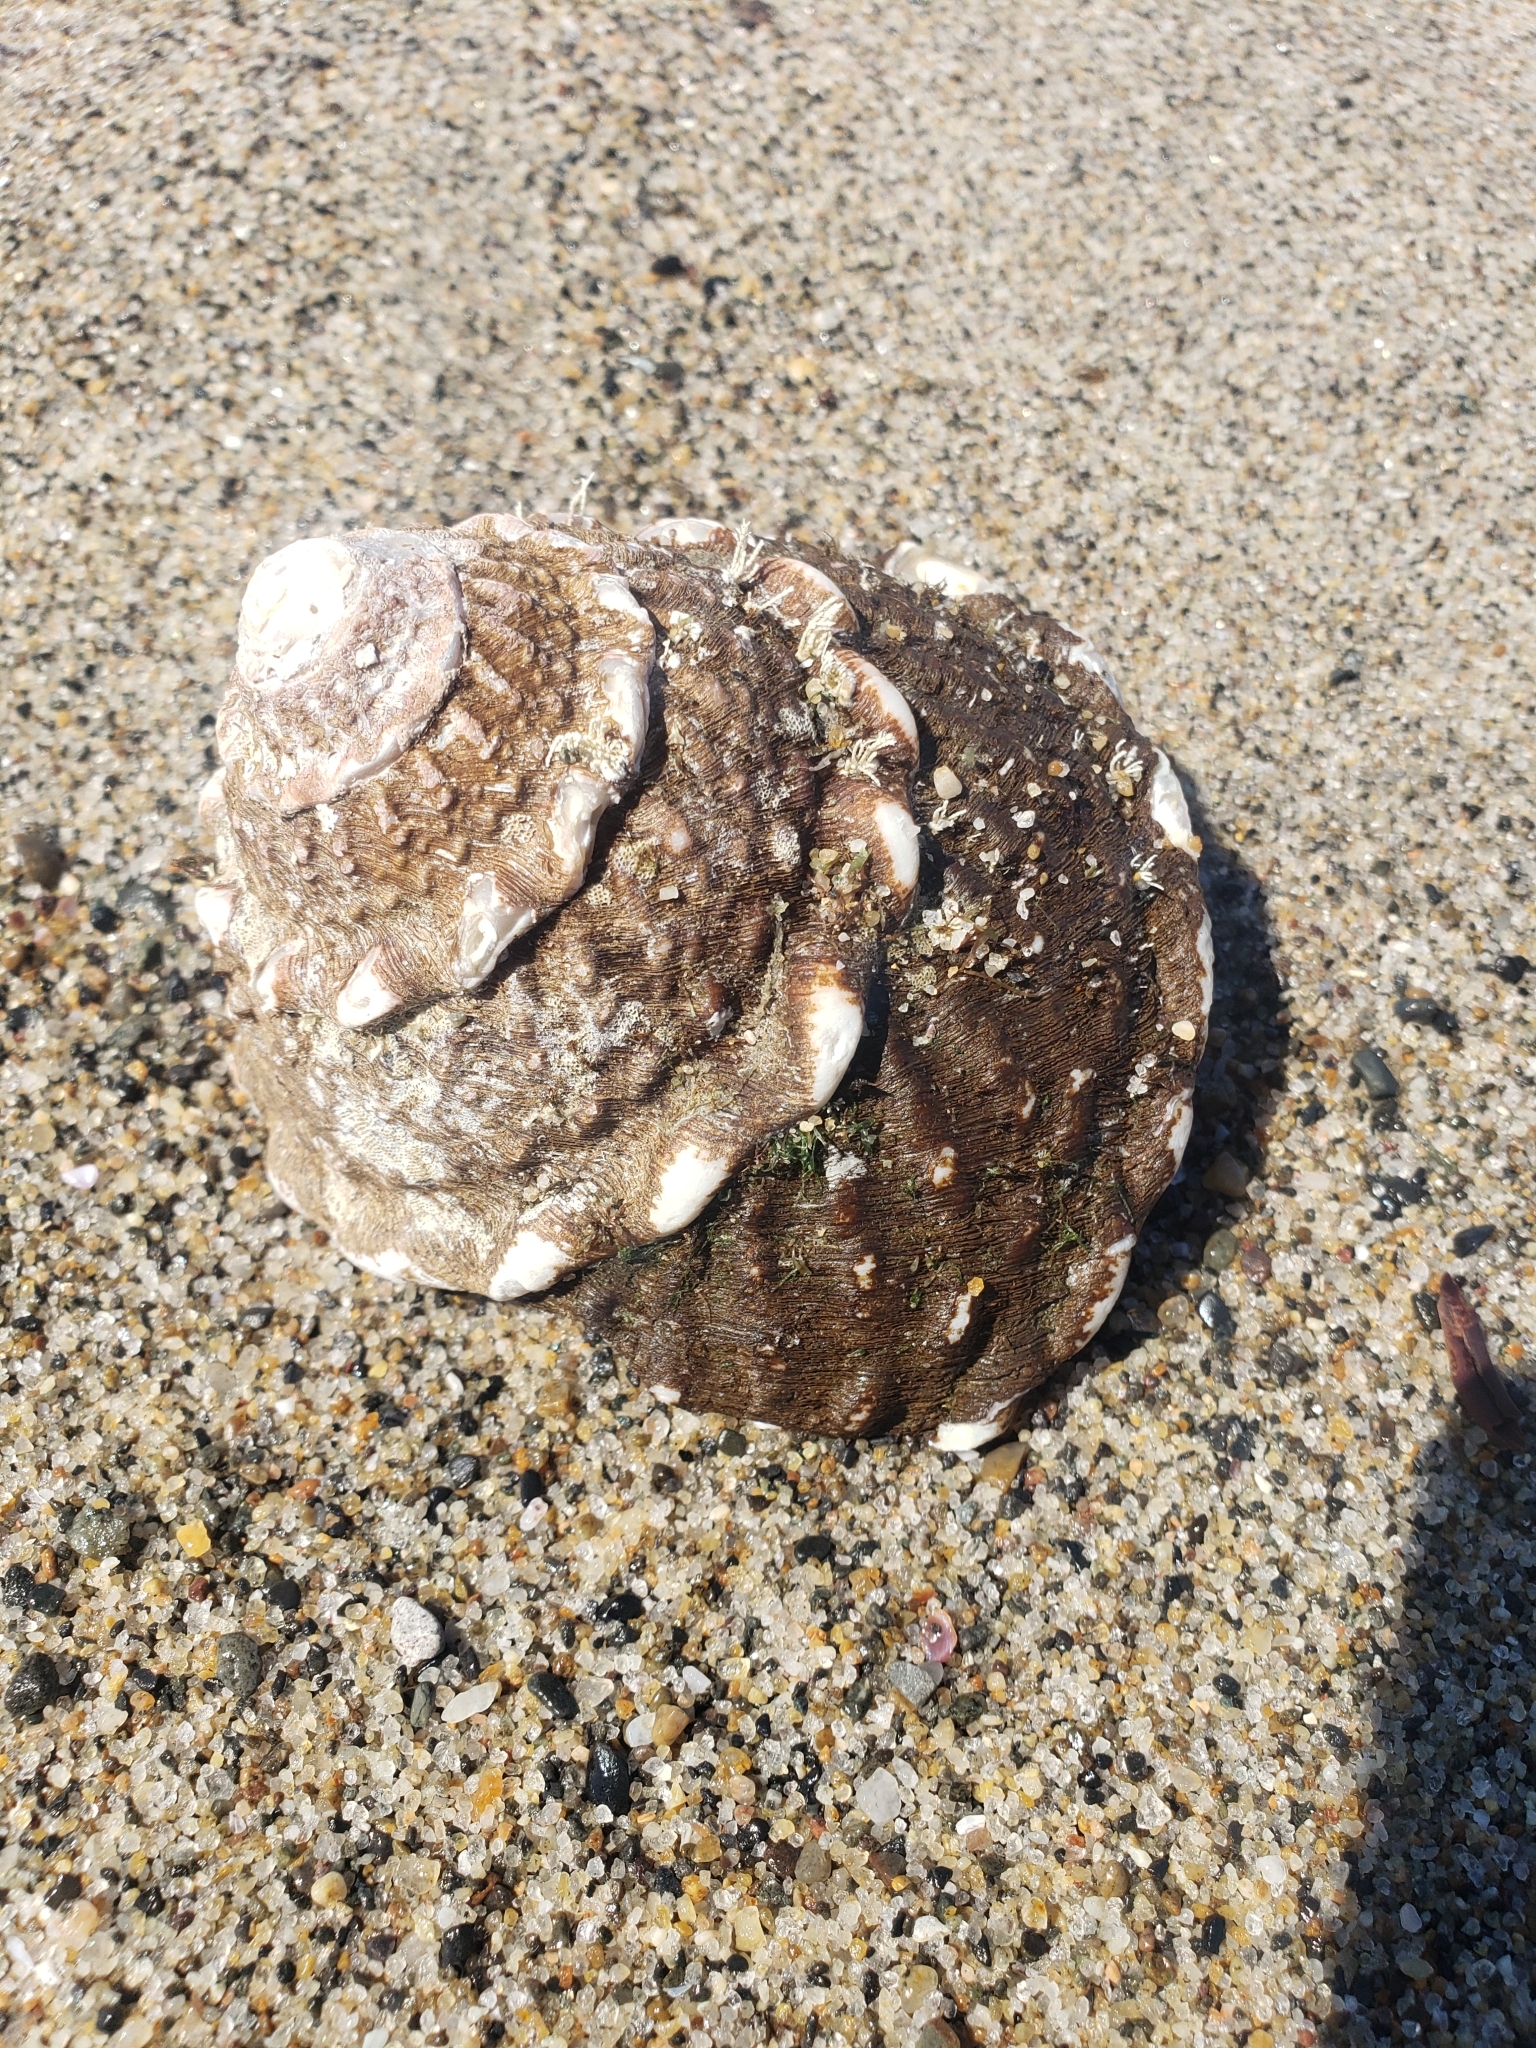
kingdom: Animalia
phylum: Mollusca
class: Gastropoda
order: Trochida
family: Turbinidae
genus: Megastraea
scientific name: Megastraea undosa
